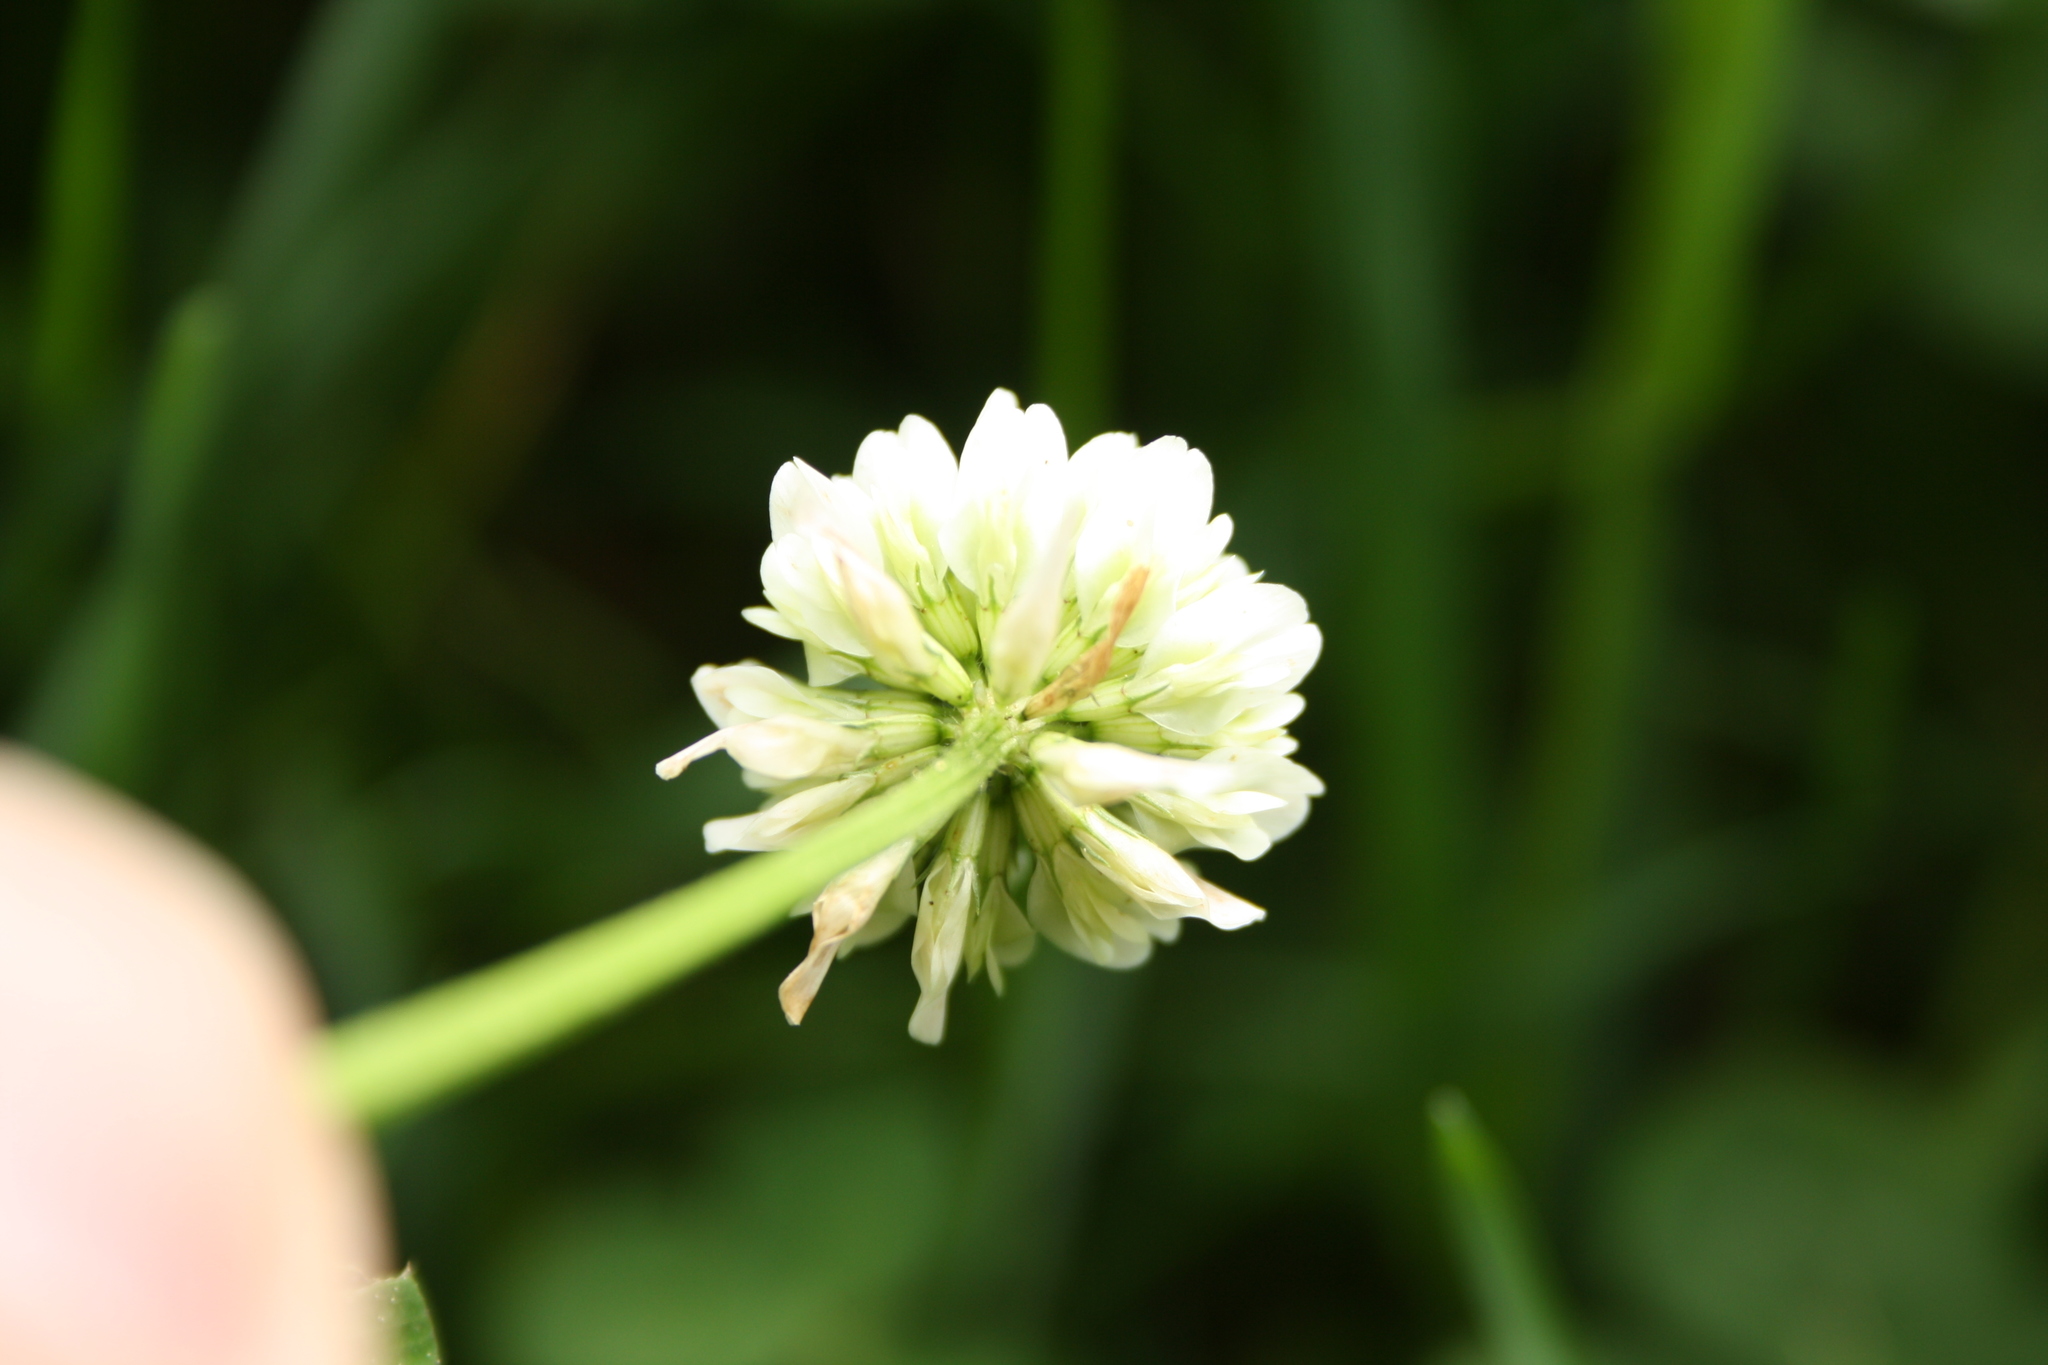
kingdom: Plantae
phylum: Tracheophyta
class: Magnoliopsida
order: Fabales
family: Fabaceae
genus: Trifolium
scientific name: Trifolium repens
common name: White clover
